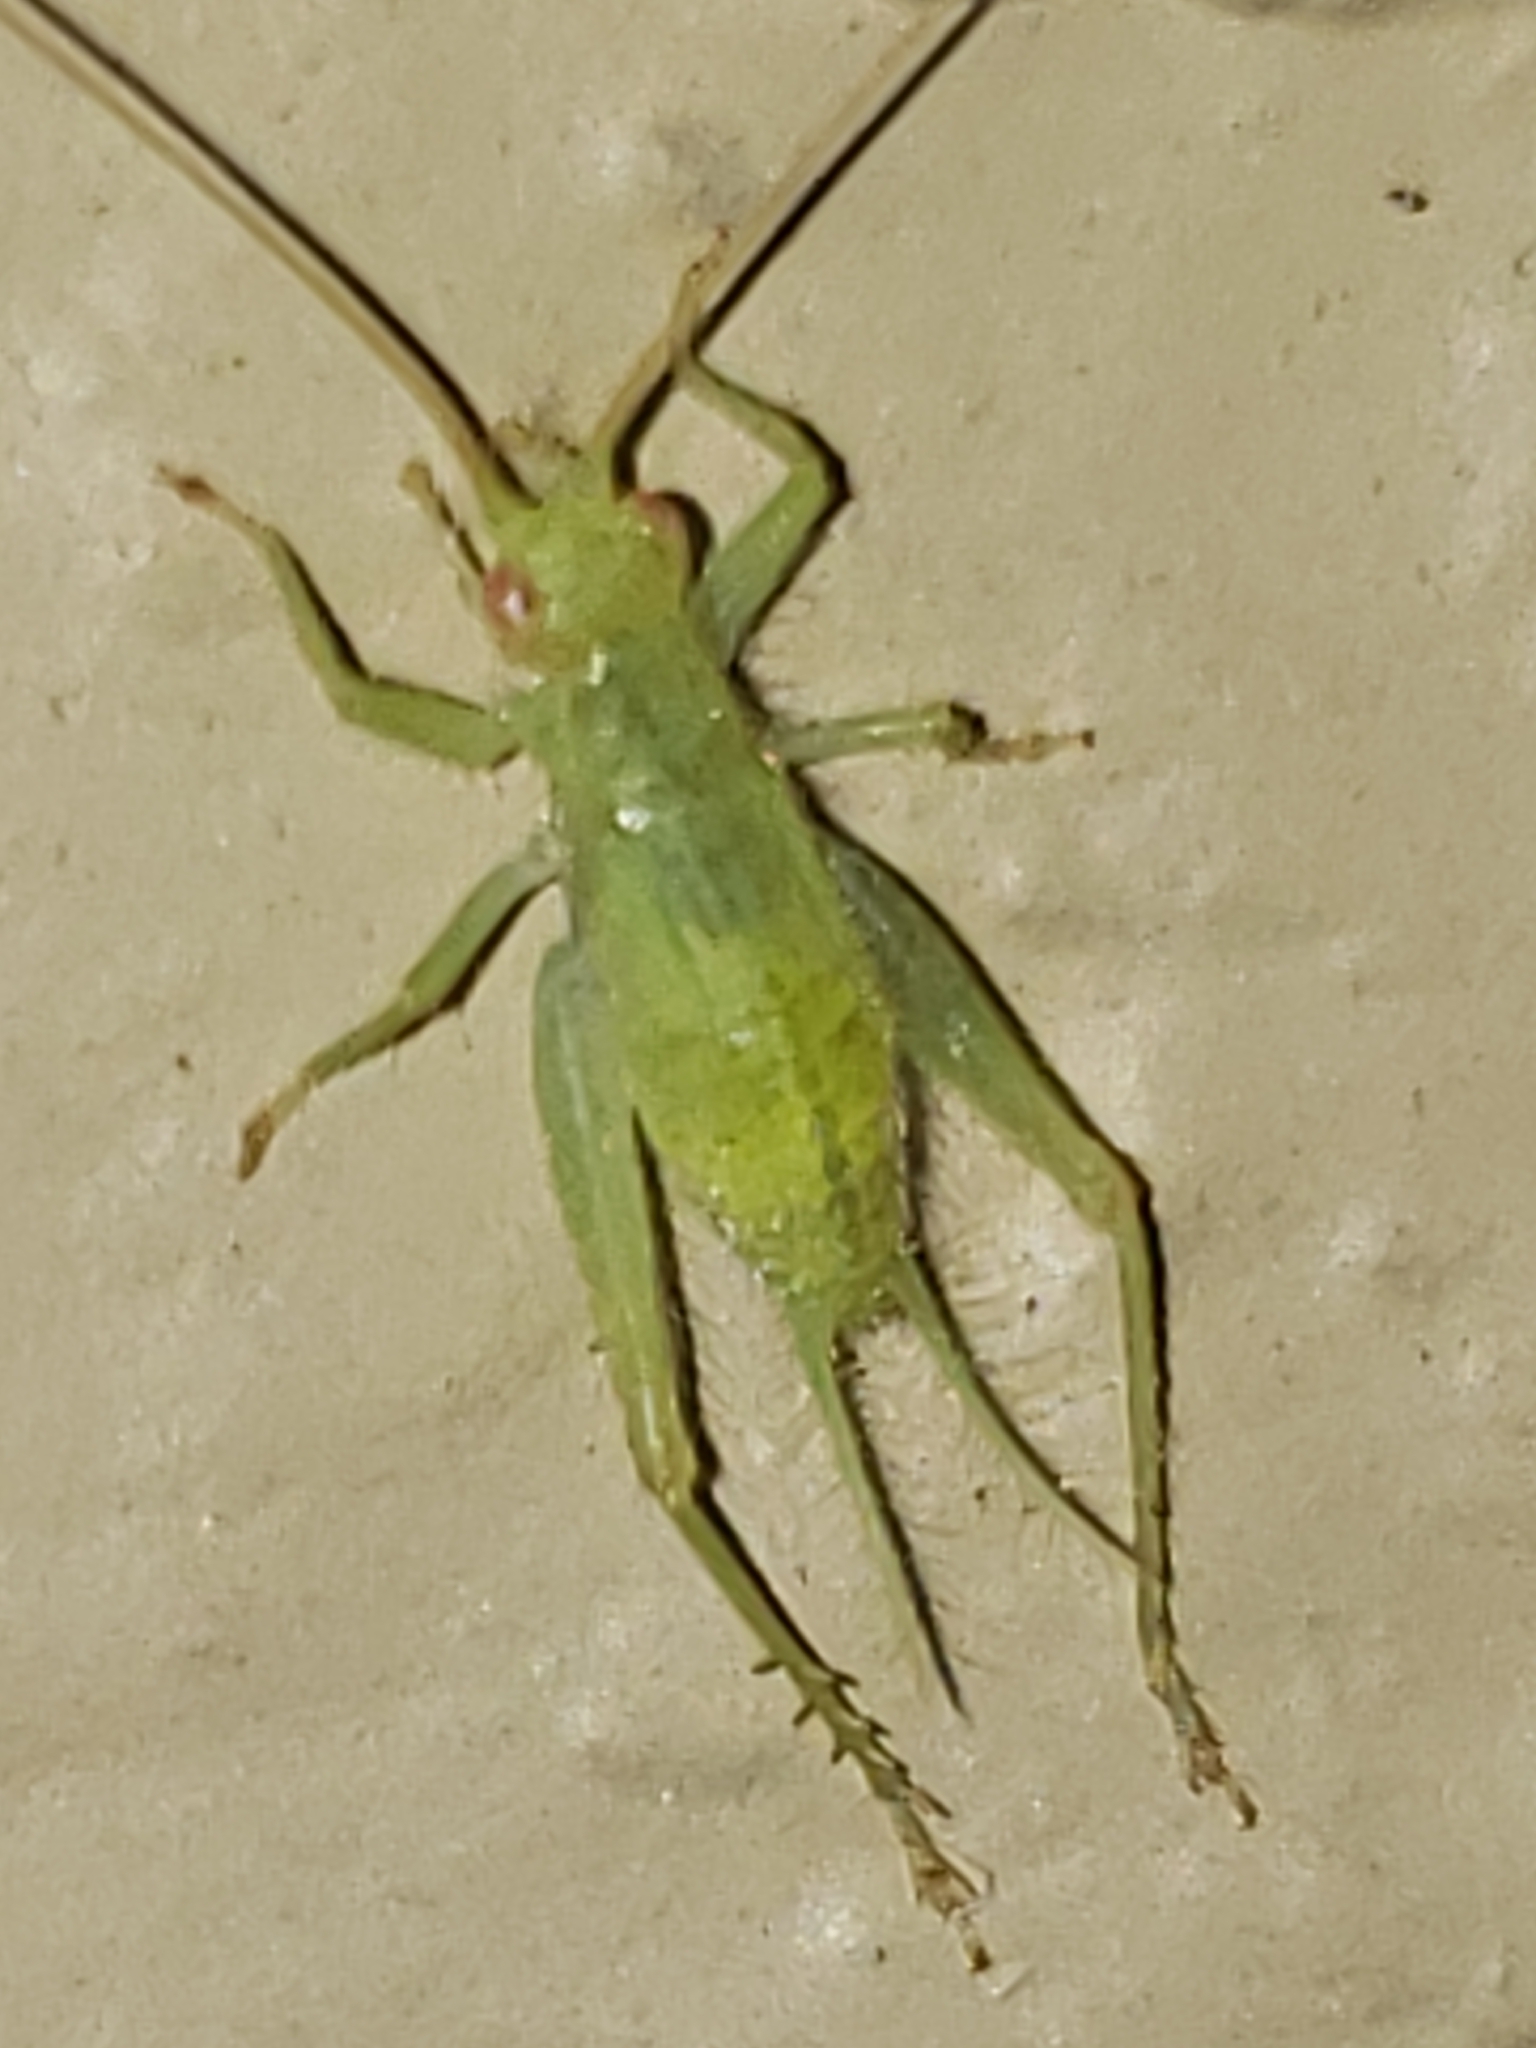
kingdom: Animalia
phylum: Arthropoda
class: Insecta
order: Orthoptera
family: Trigonidiidae
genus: Cyrtoxipha
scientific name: Cyrtoxipha columbiana
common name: Columbian trig
